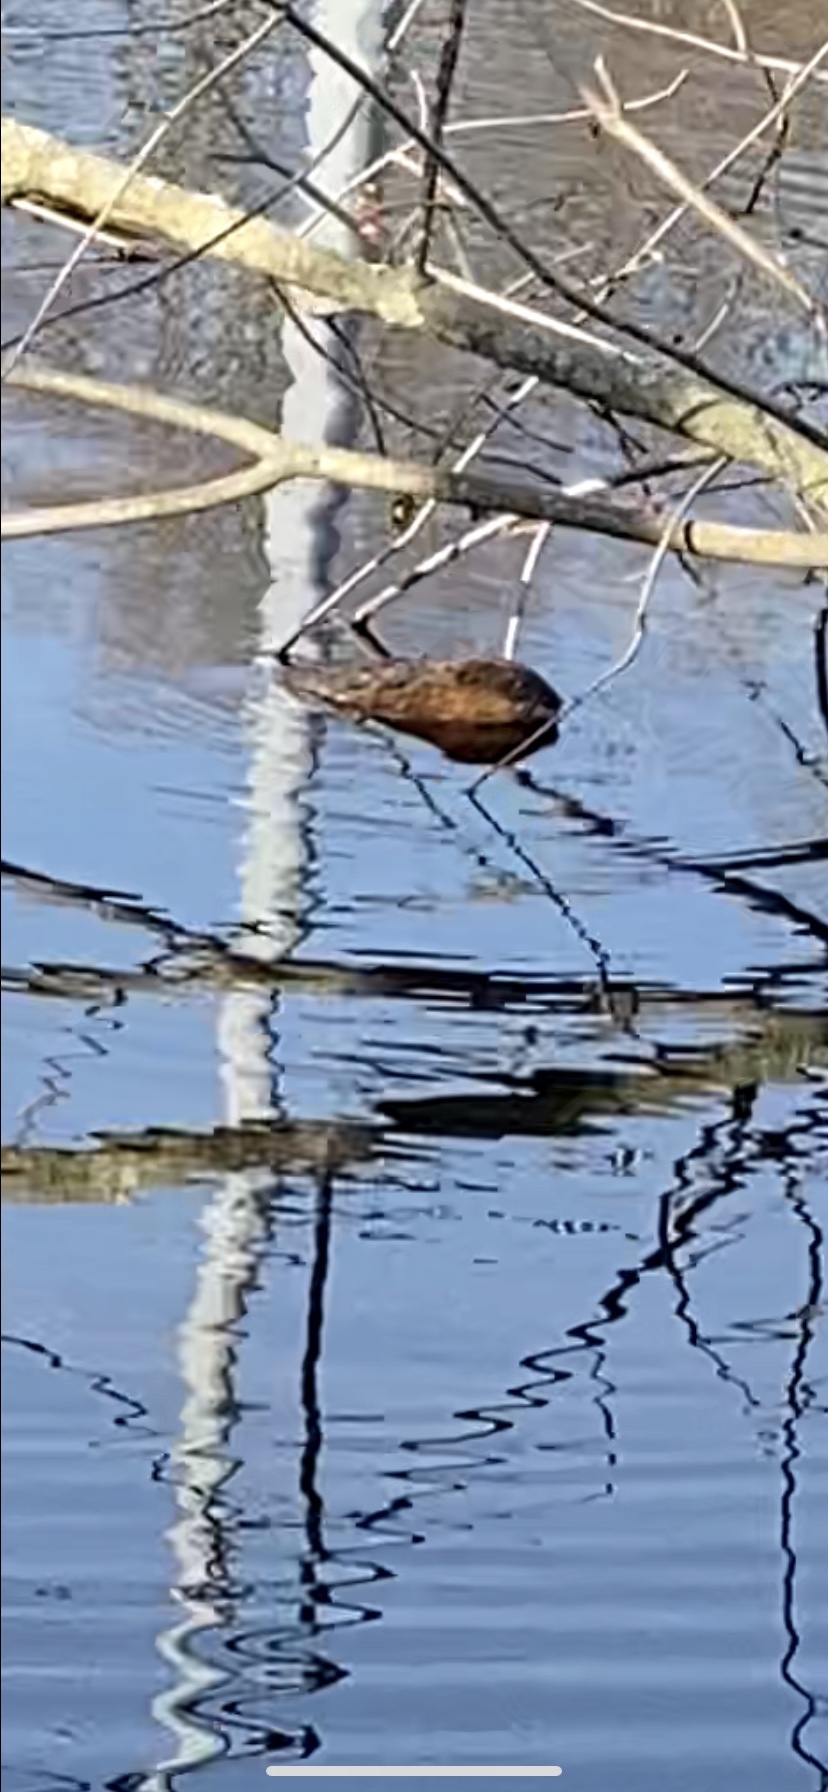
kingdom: Animalia
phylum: Chordata
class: Mammalia
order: Rodentia
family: Cricetidae
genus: Ondatra
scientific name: Ondatra zibethicus
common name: Muskrat
